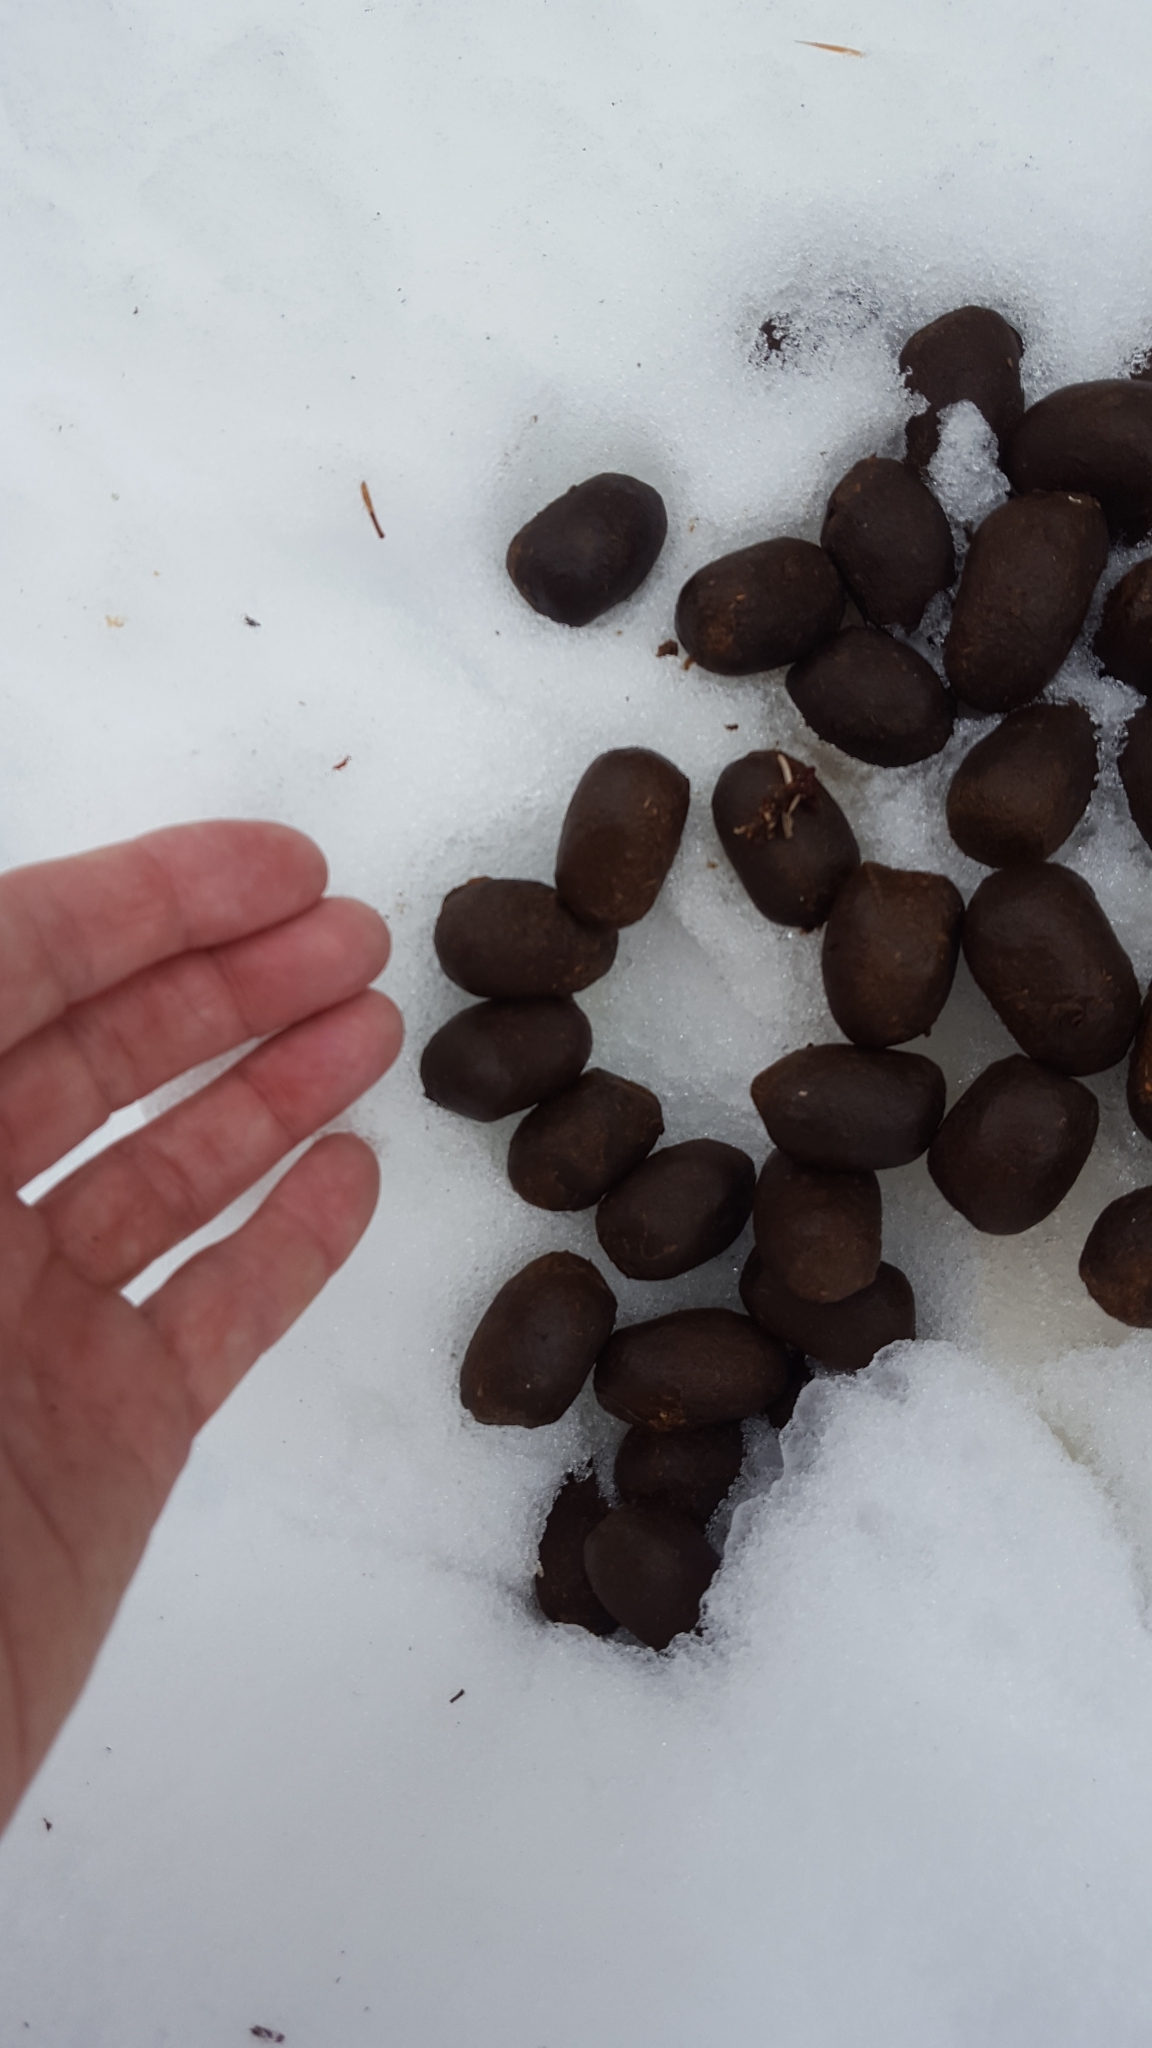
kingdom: Animalia
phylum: Chordata
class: Mammalia
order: Artiodactyla
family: Cervidae
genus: Alces
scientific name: Alces alces
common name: Moose
